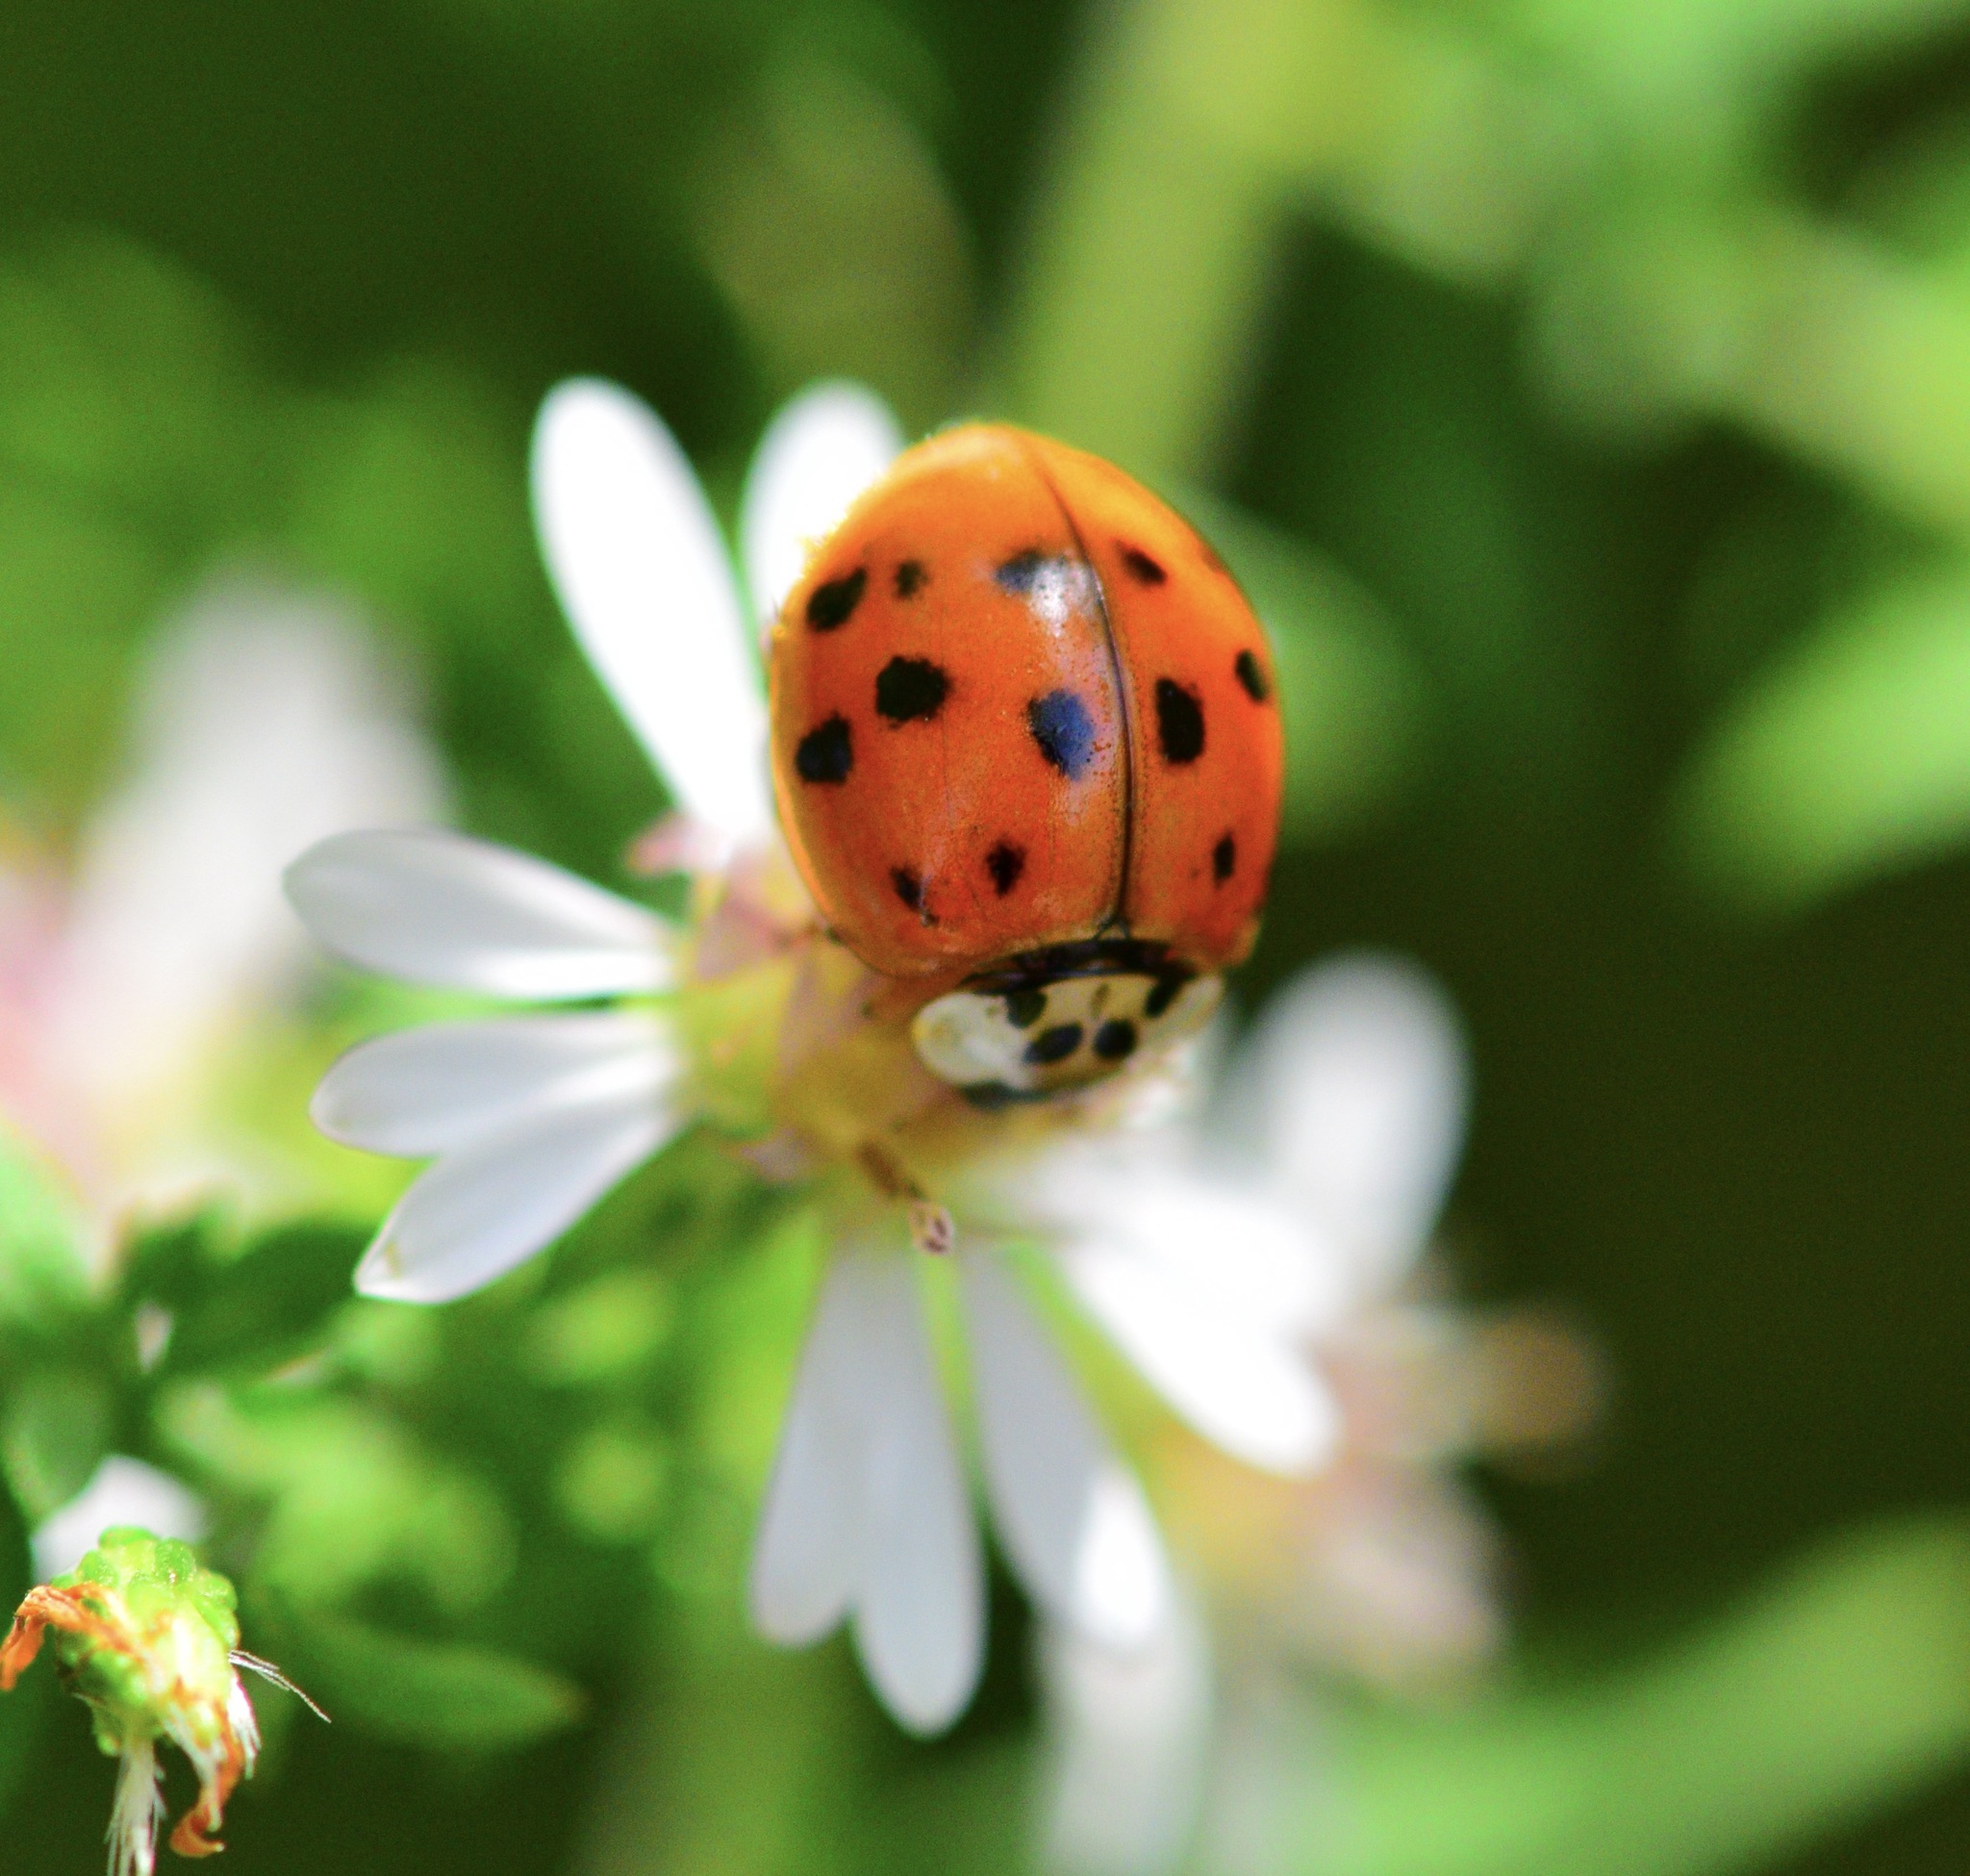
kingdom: Animalia
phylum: Arthropoda
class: Insecta
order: Coleoptera
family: Coccinellidae
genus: Harmonia
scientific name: Harmonia axyridis
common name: Harlequin ladybird
